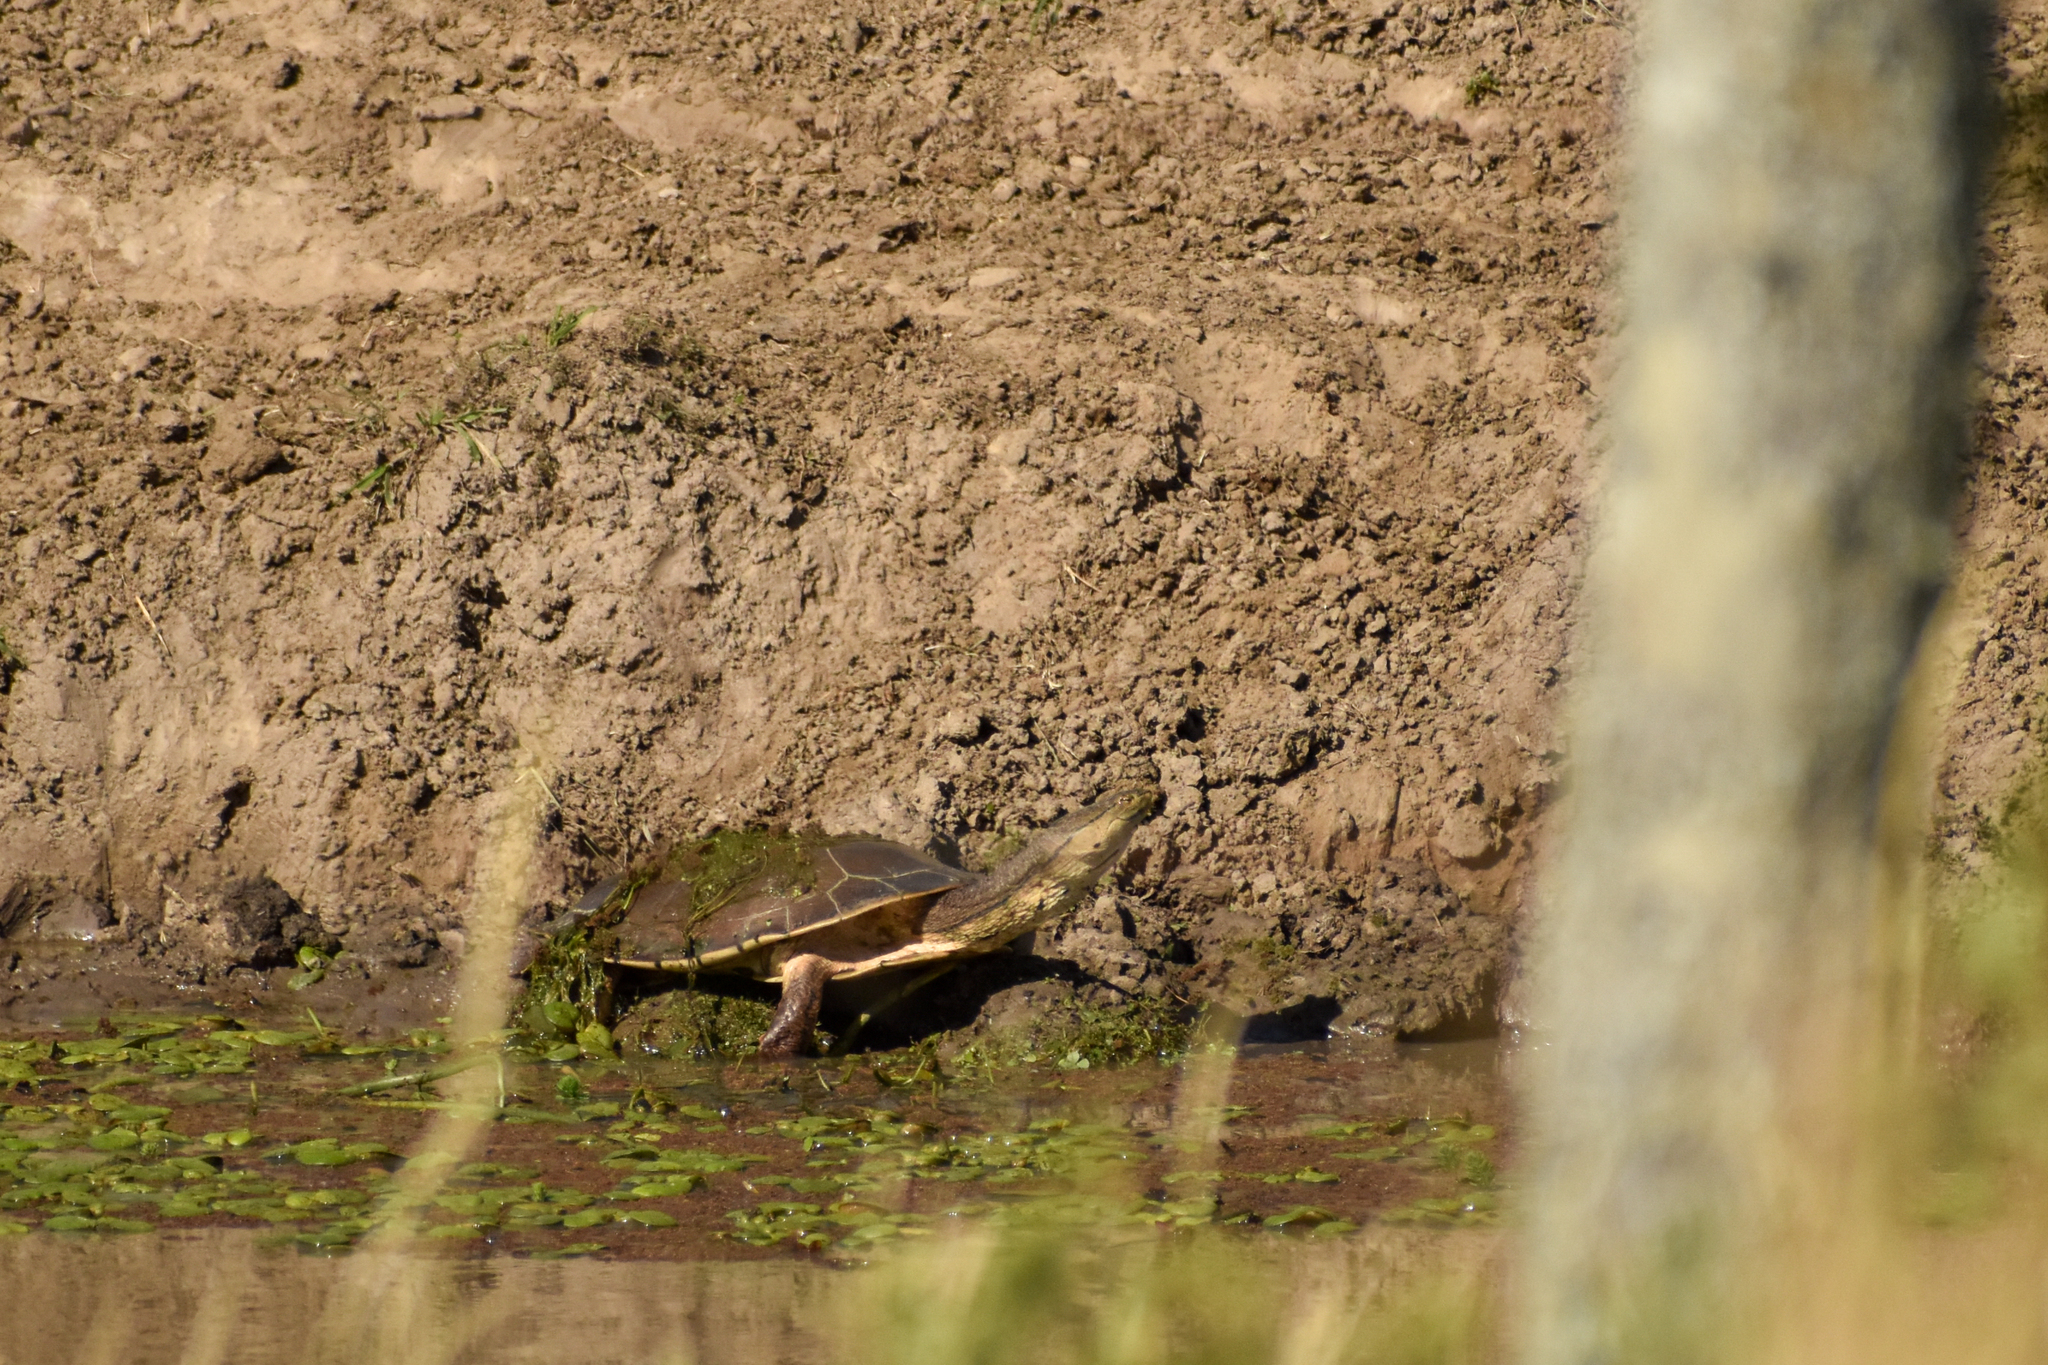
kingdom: Animalia
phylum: Chordata
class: Testudines
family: Chelidae
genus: Phrynops
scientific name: Phrynops hilarii
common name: Side-necked turtle of saint hillaire
